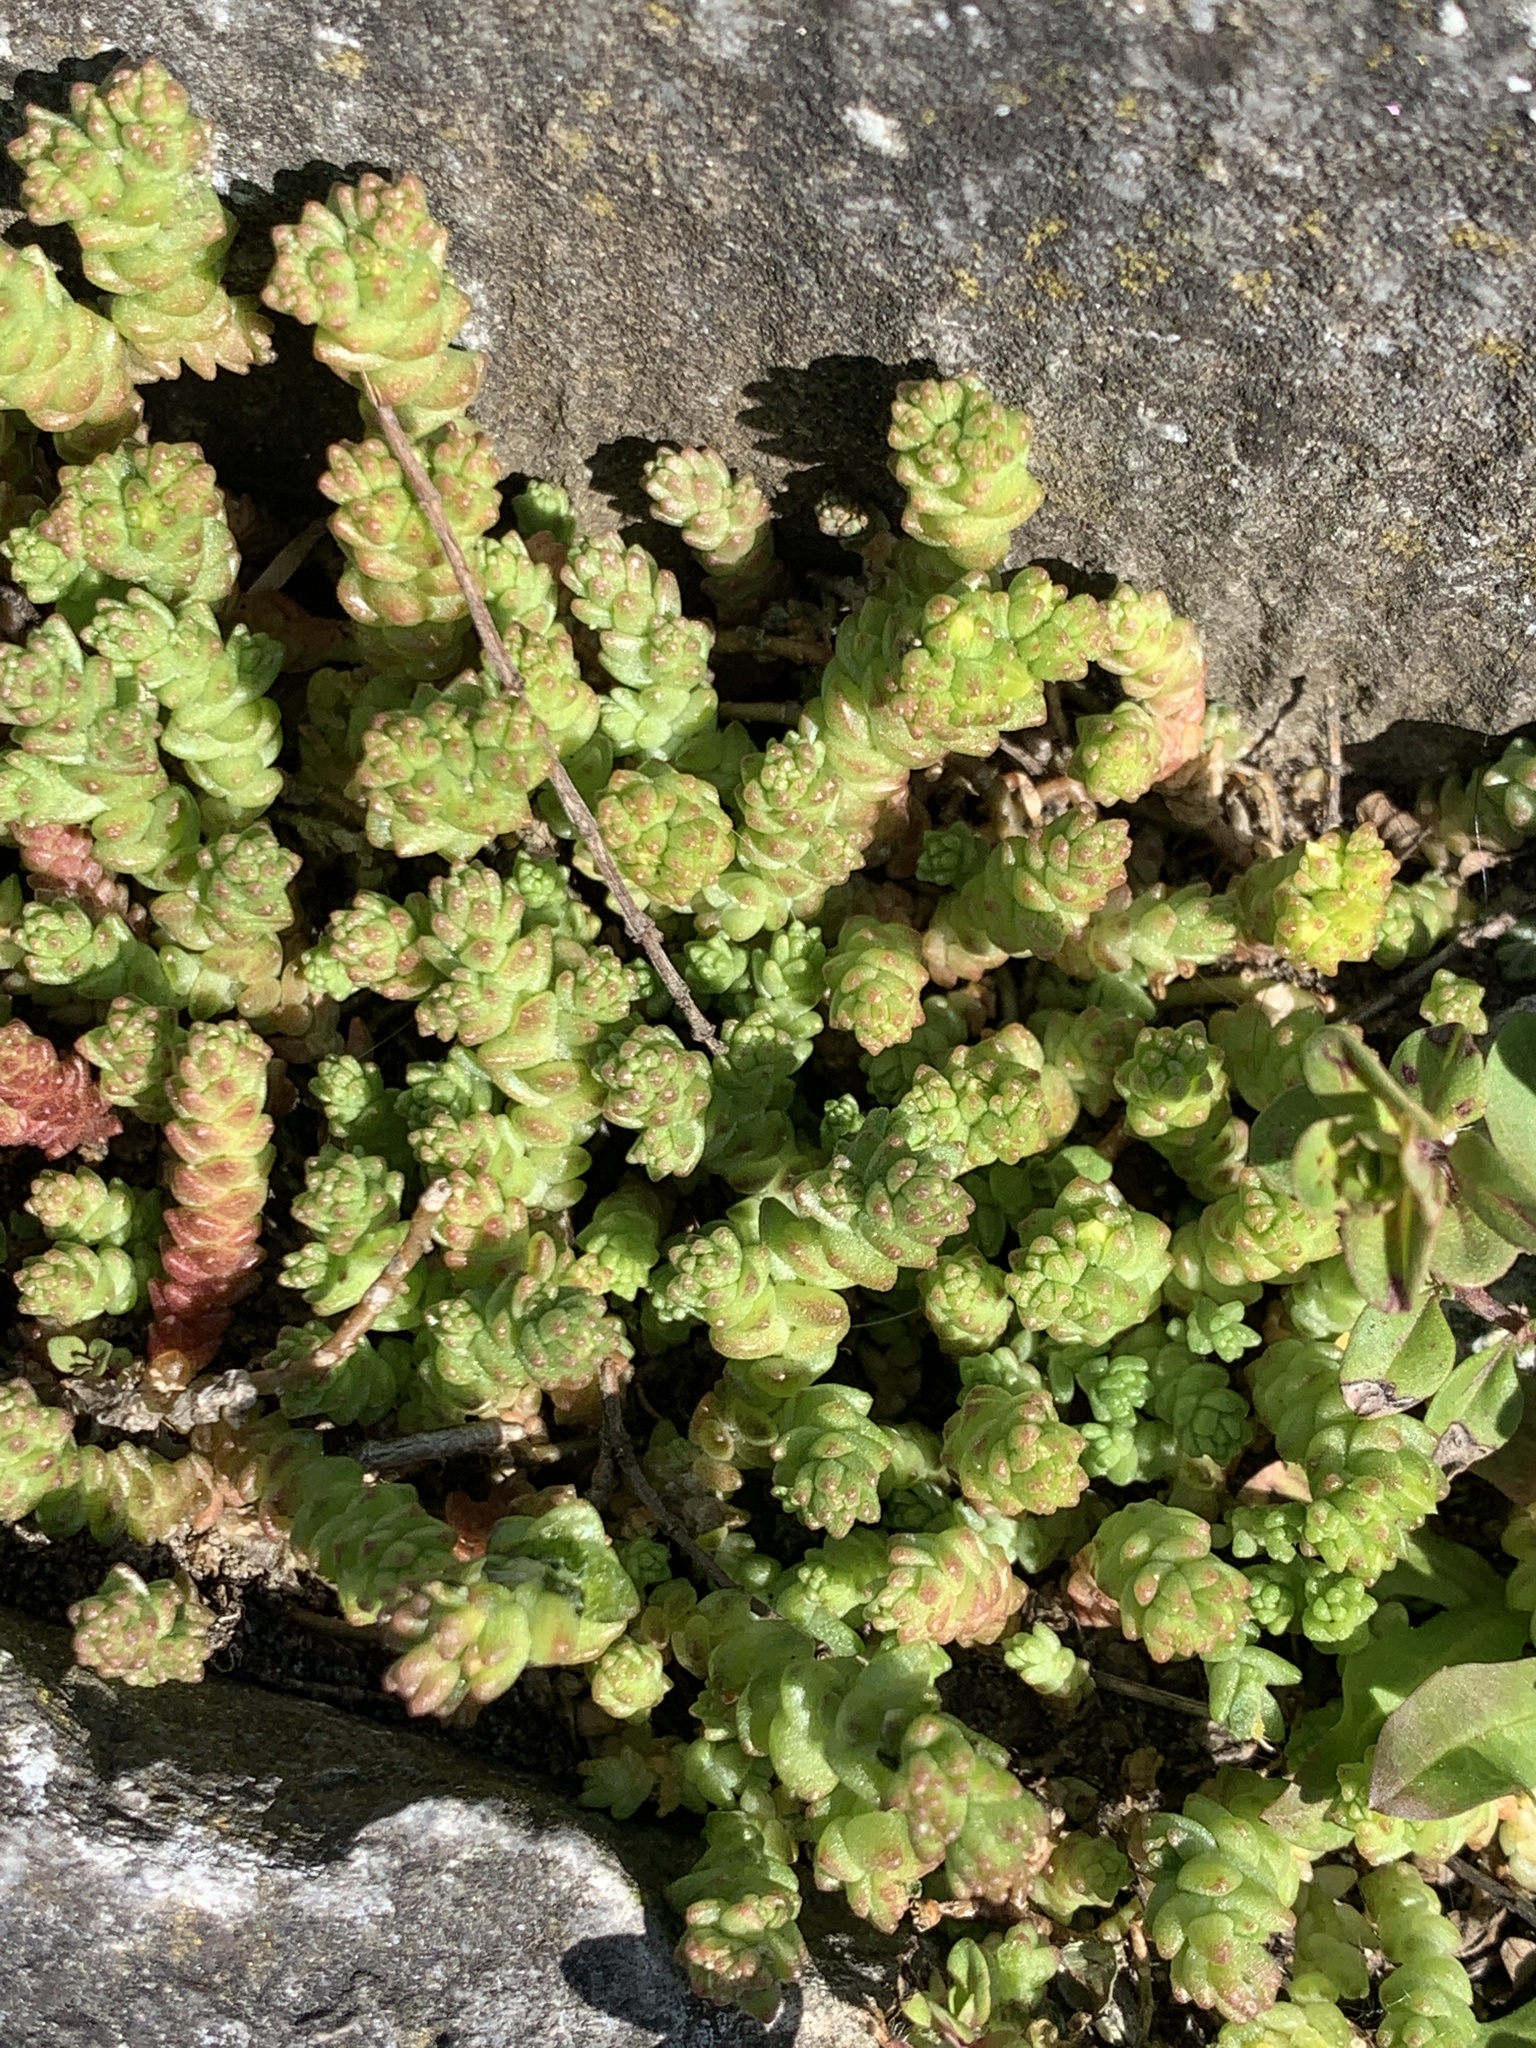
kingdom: Plantae
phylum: Tracheophyta
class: Magnoliopsida
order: Saxifragales
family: Crassulaceae
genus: Sedum
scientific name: Sedum acre
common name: Biting stonecrop
